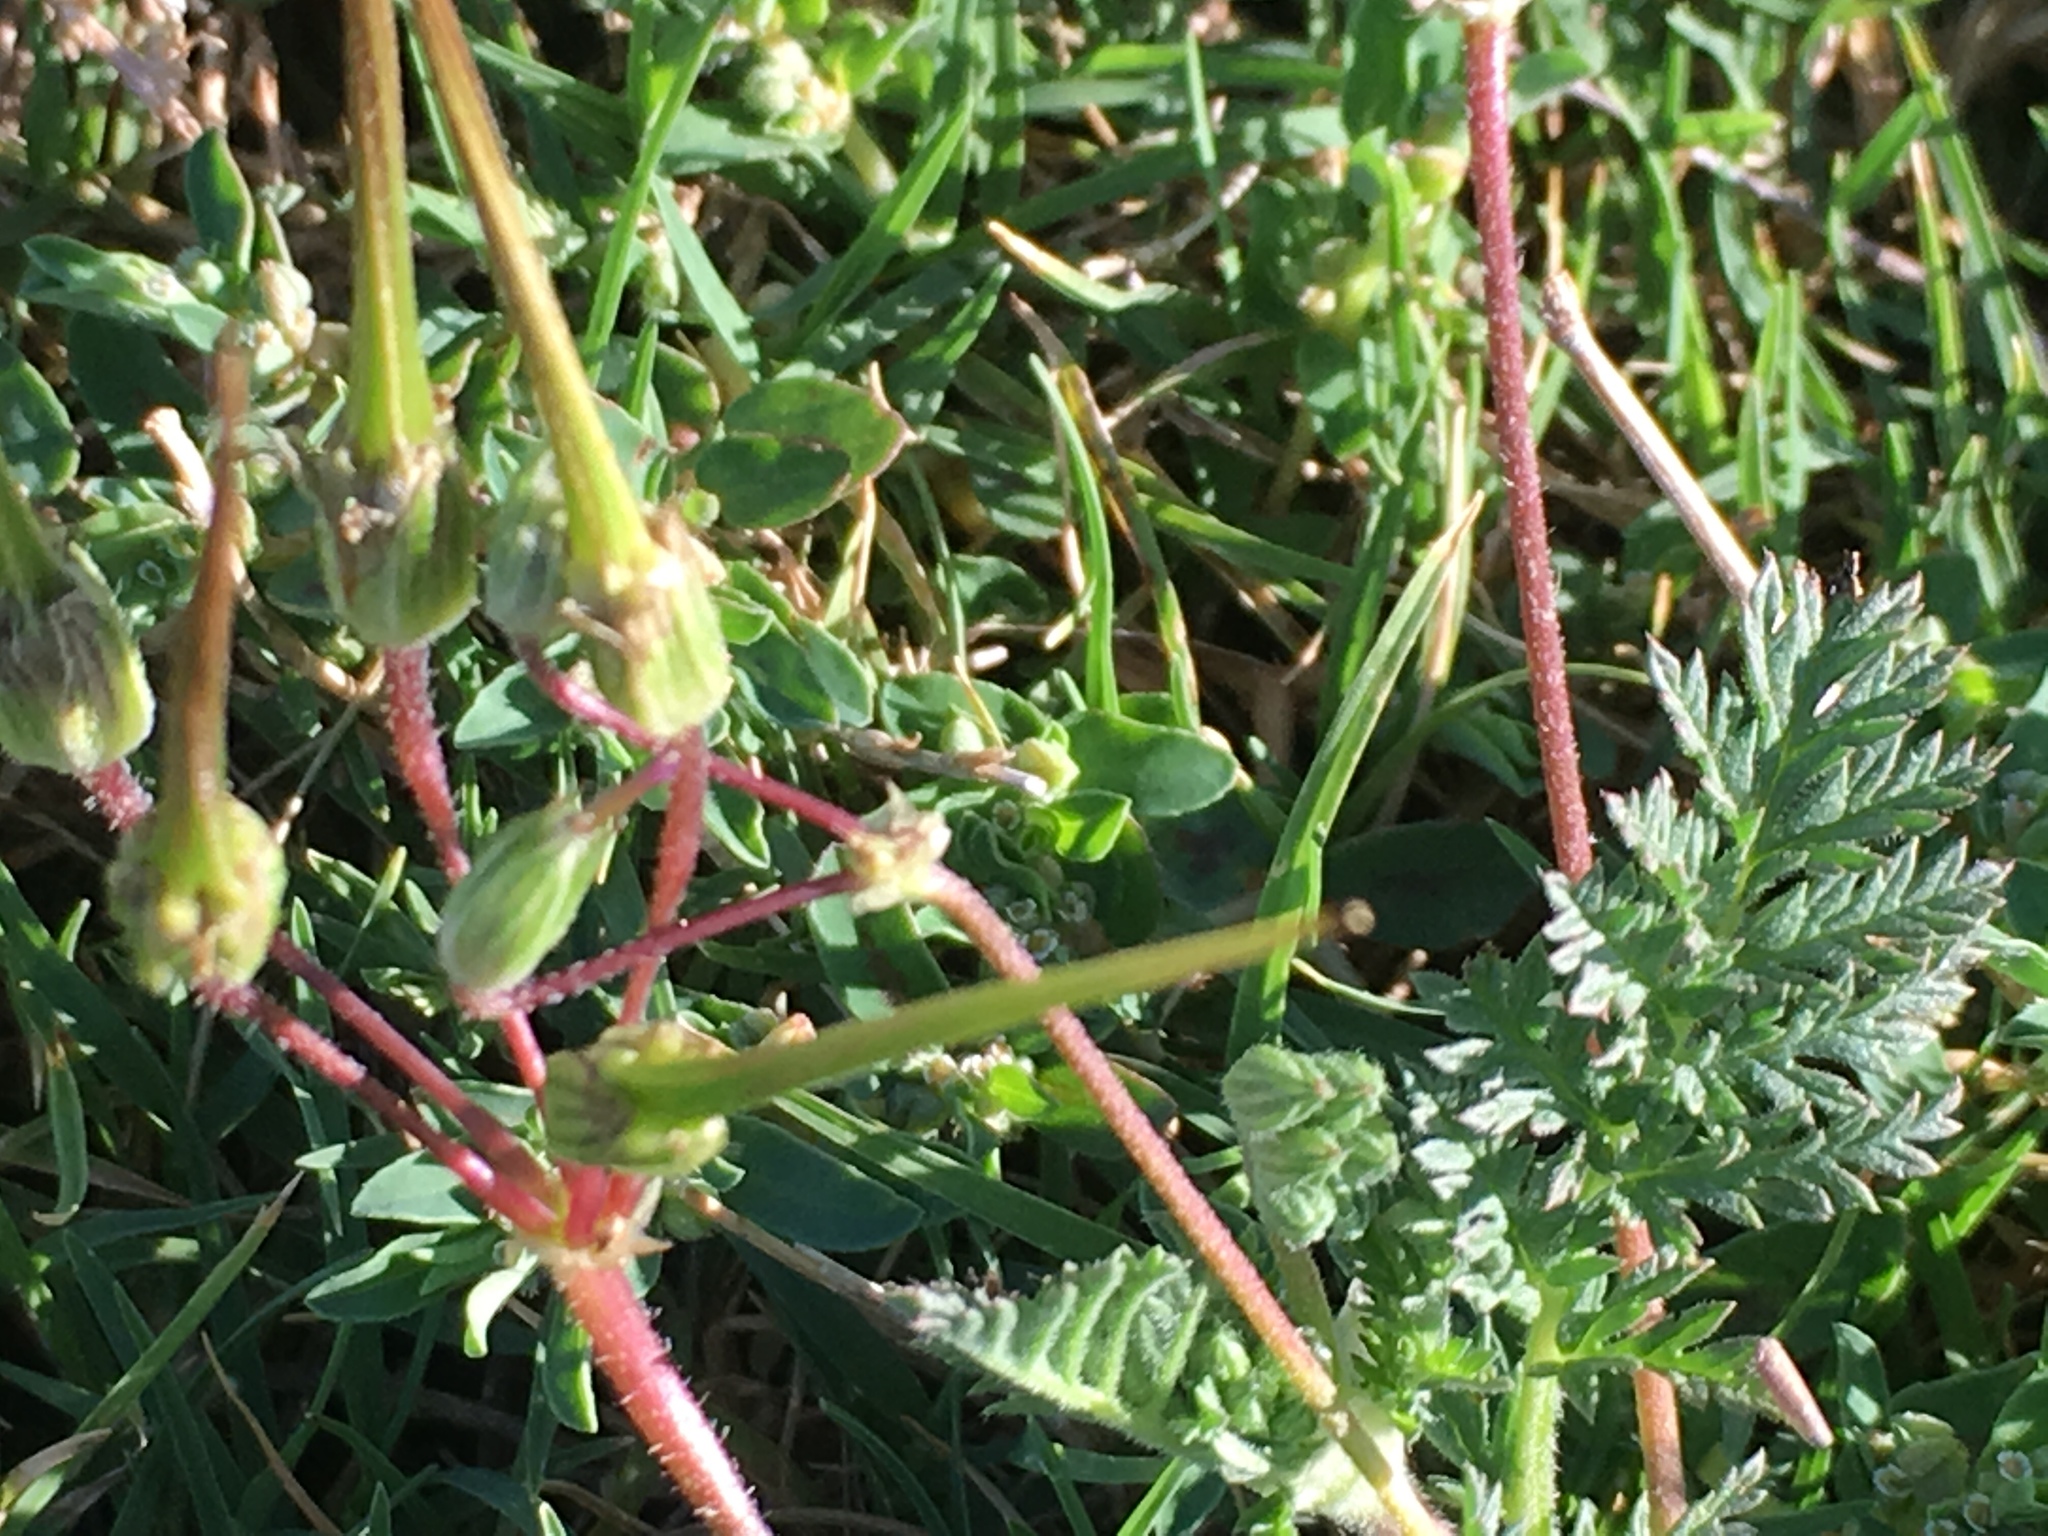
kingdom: Plantae
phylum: Tracheophyta
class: Magnoliopsida
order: Geraniales
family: Geraniaceae
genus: Erodium
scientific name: Erodium cicutarium
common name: Common stork's-bill
